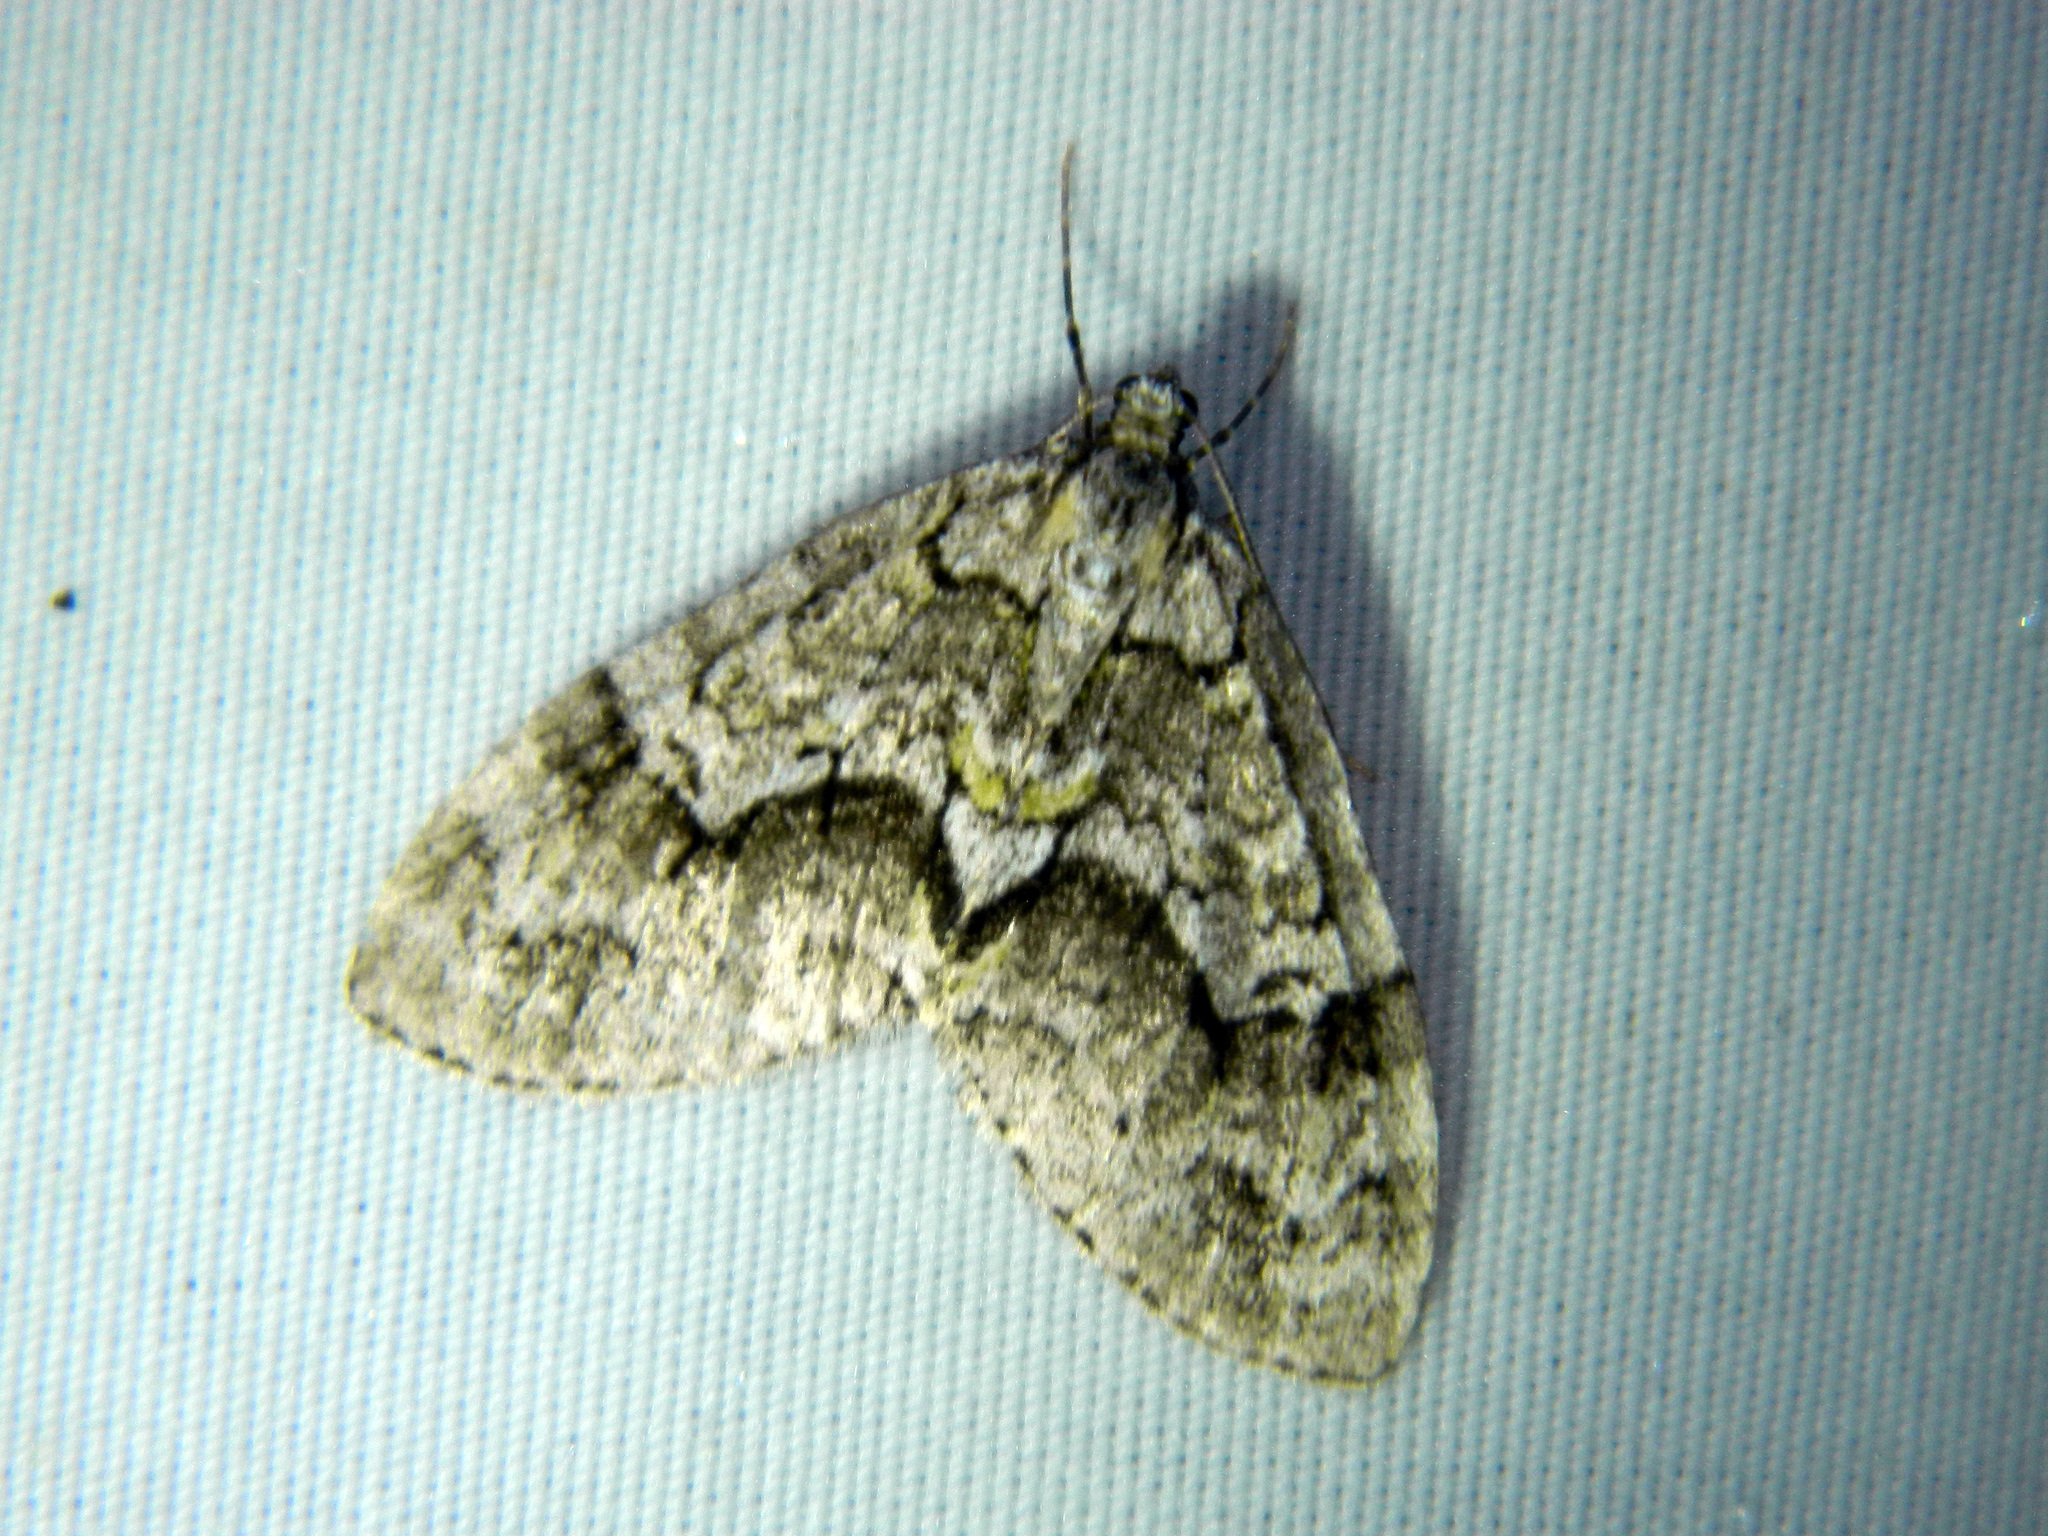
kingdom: Animalia
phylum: Arthropoda
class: Insecta
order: Lepidoptera
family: Geometridae
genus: Cladara
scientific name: Cladara limitaria
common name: Mottled gray carpet
